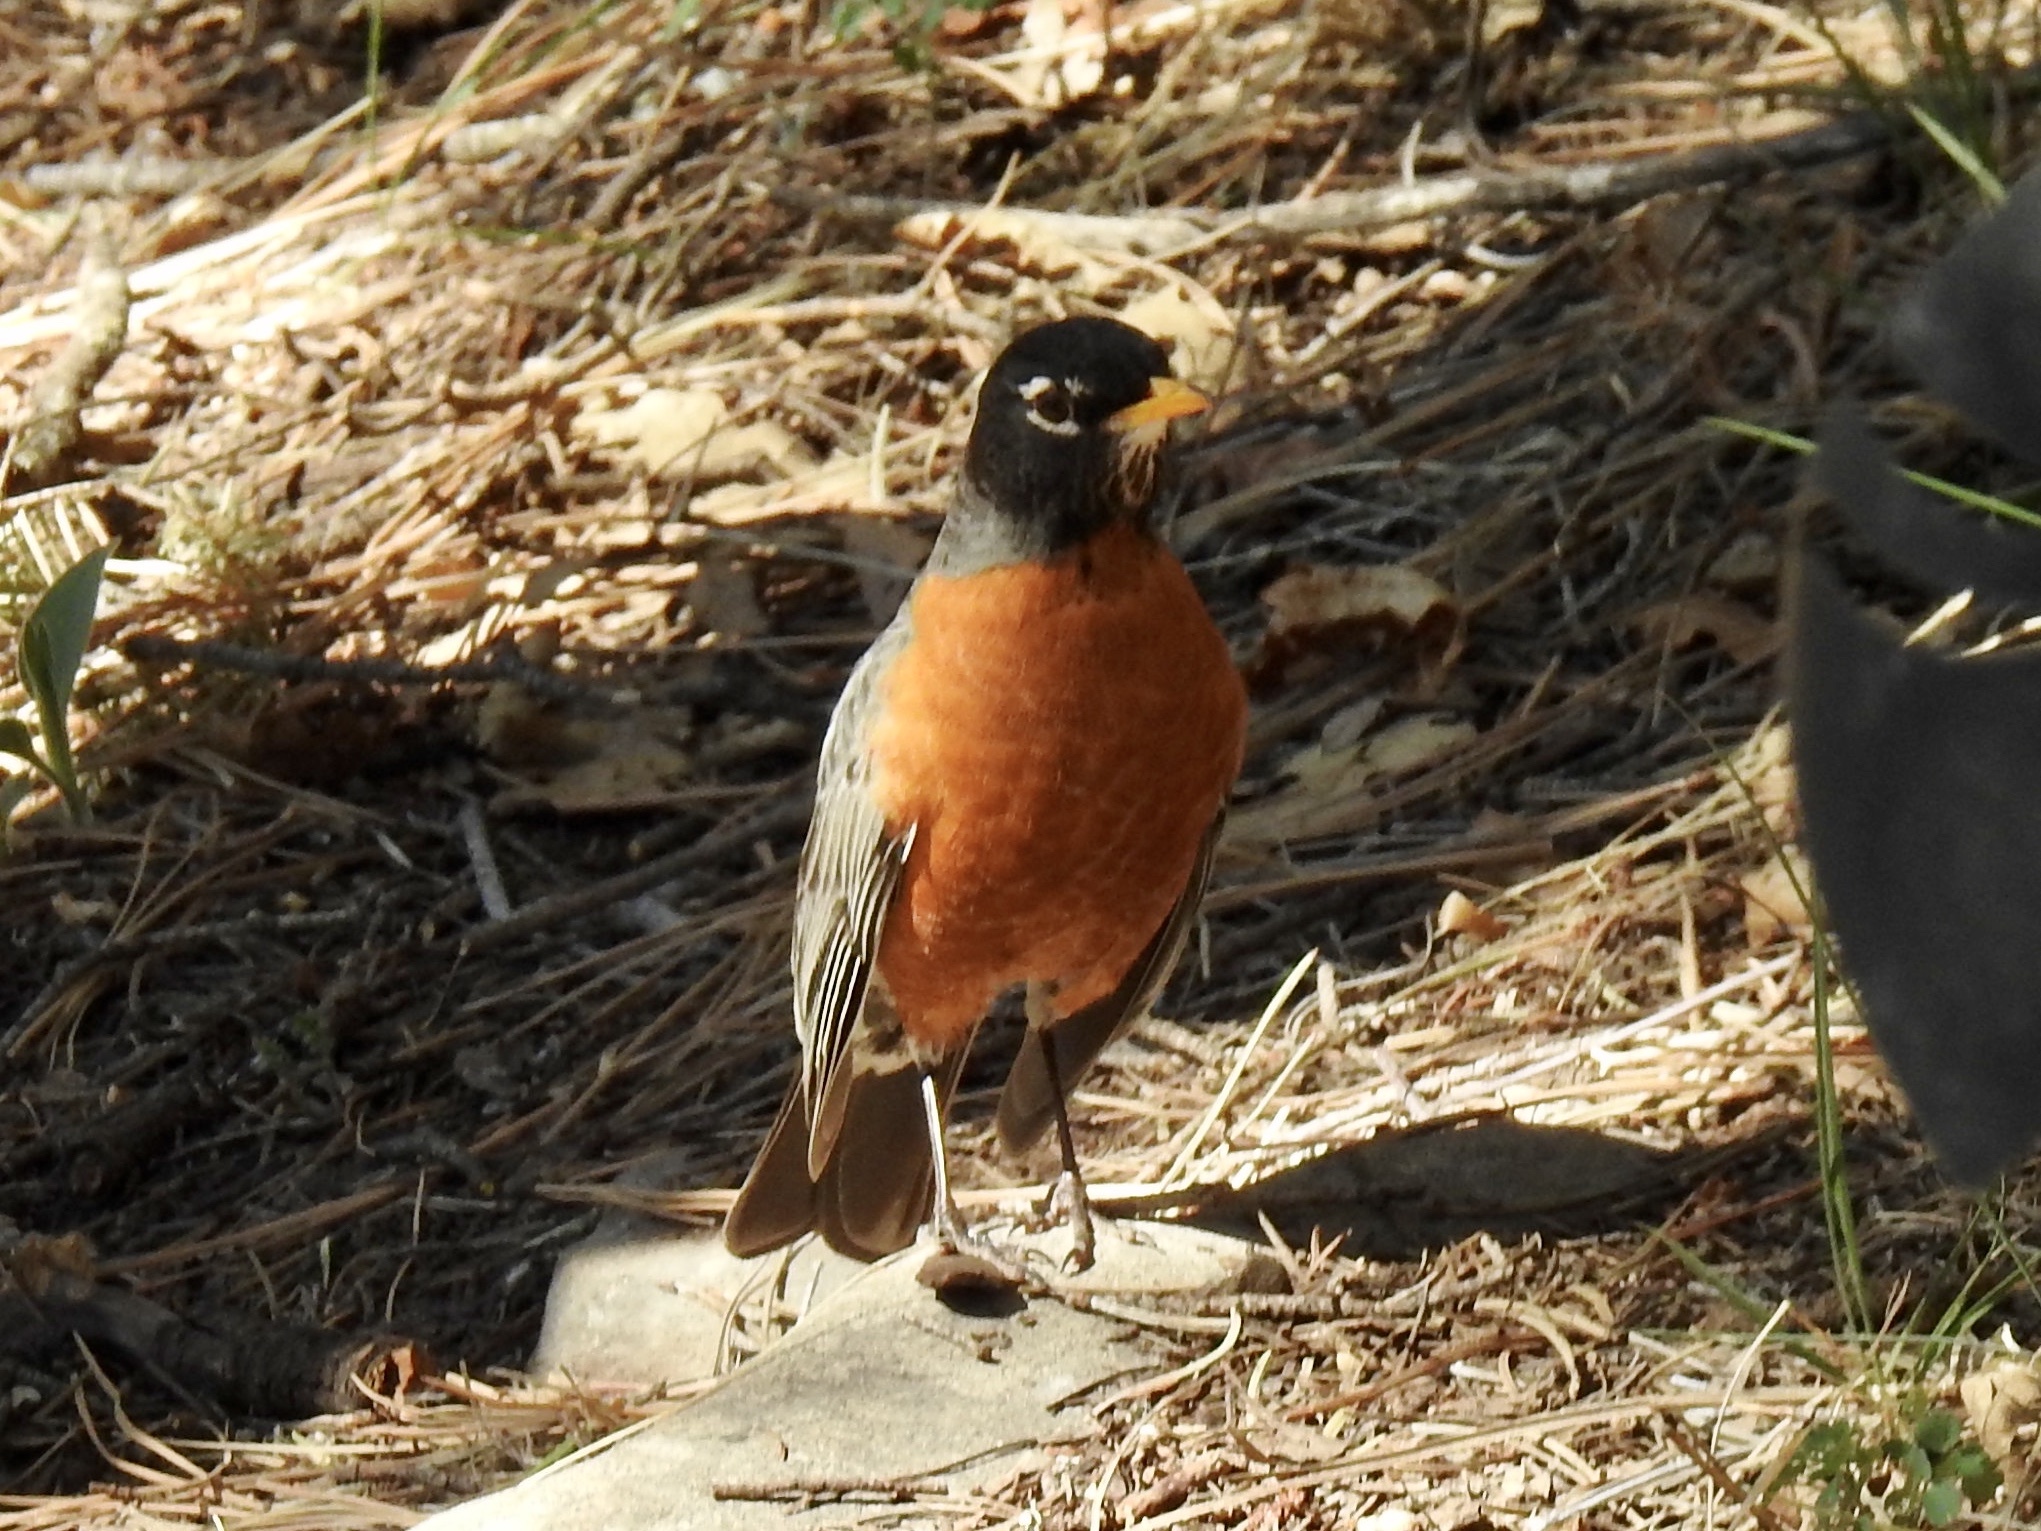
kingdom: Animalia
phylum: Chordata
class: Aves
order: Passeriformes
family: Turdidae
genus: Turdus
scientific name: Turdus migratorius
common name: American robin
